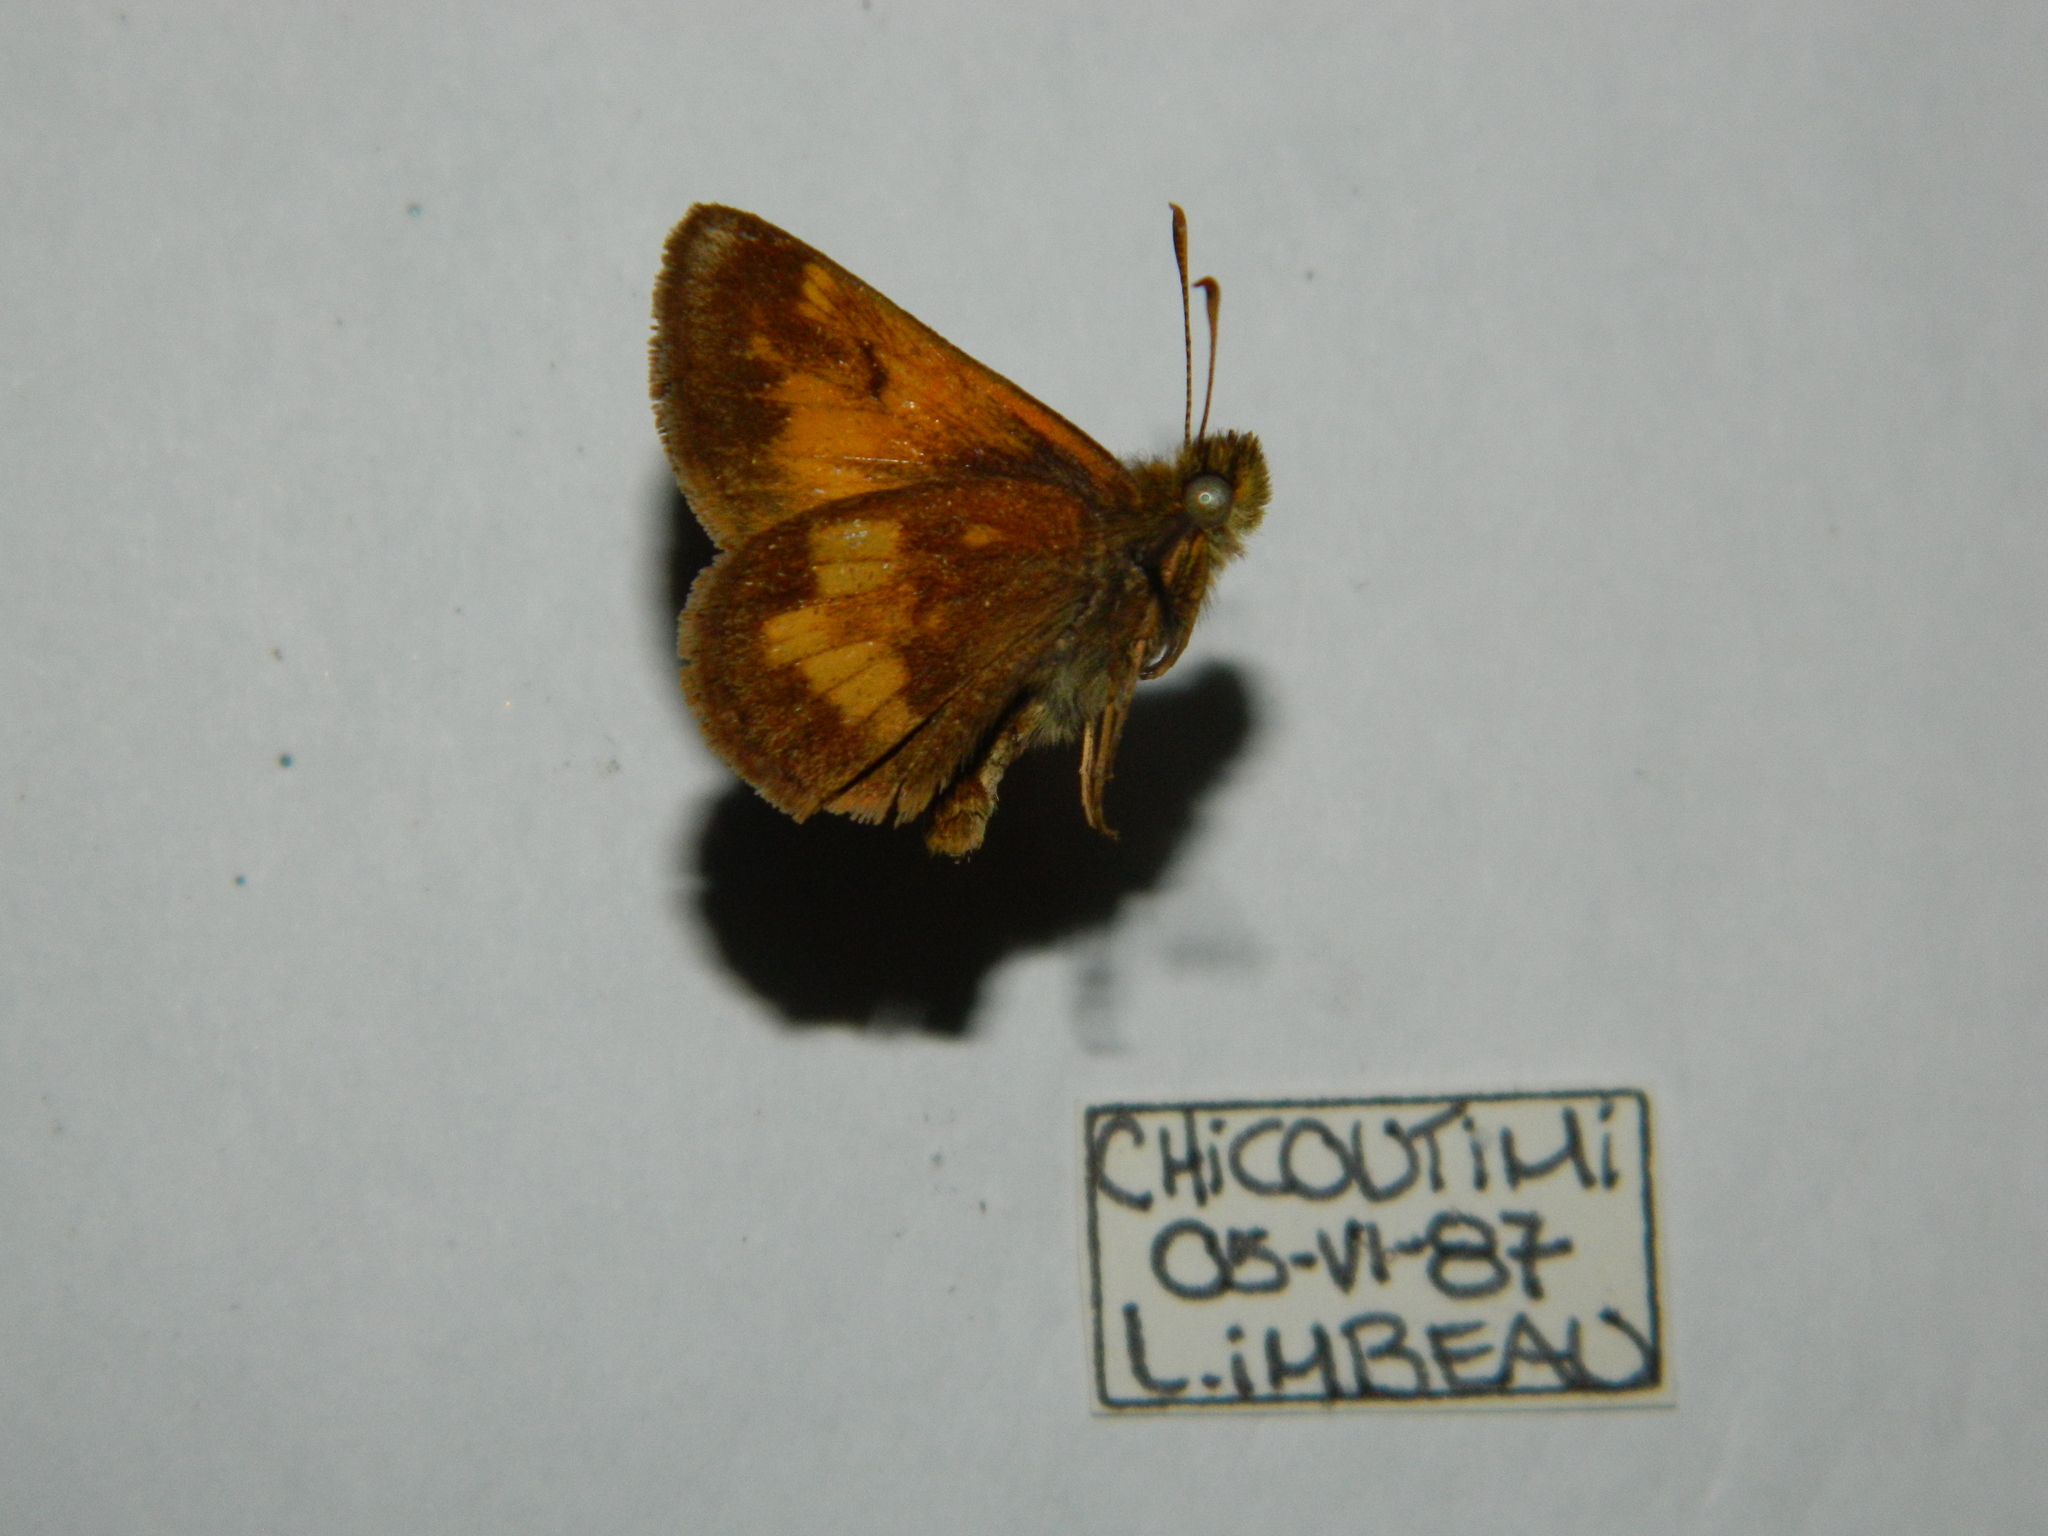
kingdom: Animalia
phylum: Arthropoda
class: Insecta
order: Lepidoptera
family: Hesperiidae
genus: Lon
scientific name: Lon hobomok
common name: Hobomok skipper
